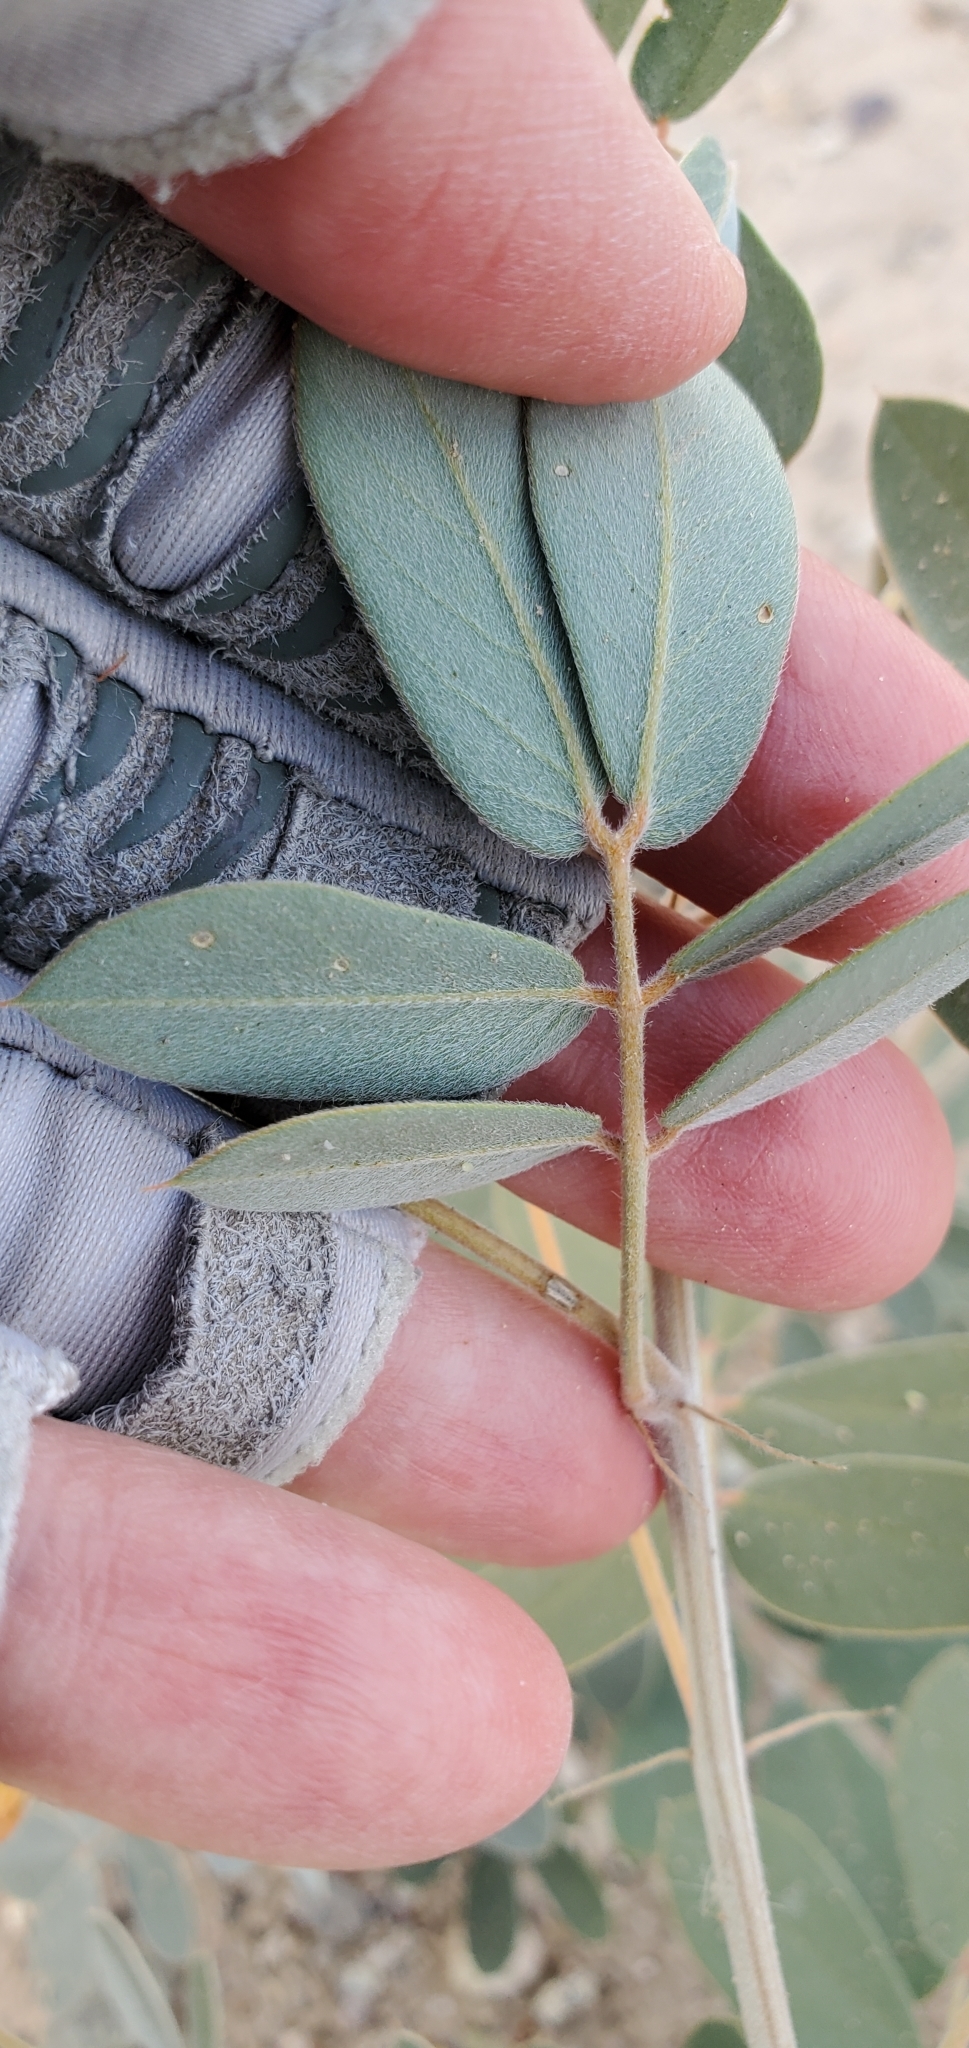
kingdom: Plantae
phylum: Tracheophyta
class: Magnoliopsida
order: Fabales
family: Fabaceae
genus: Senna
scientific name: Senna covesii
